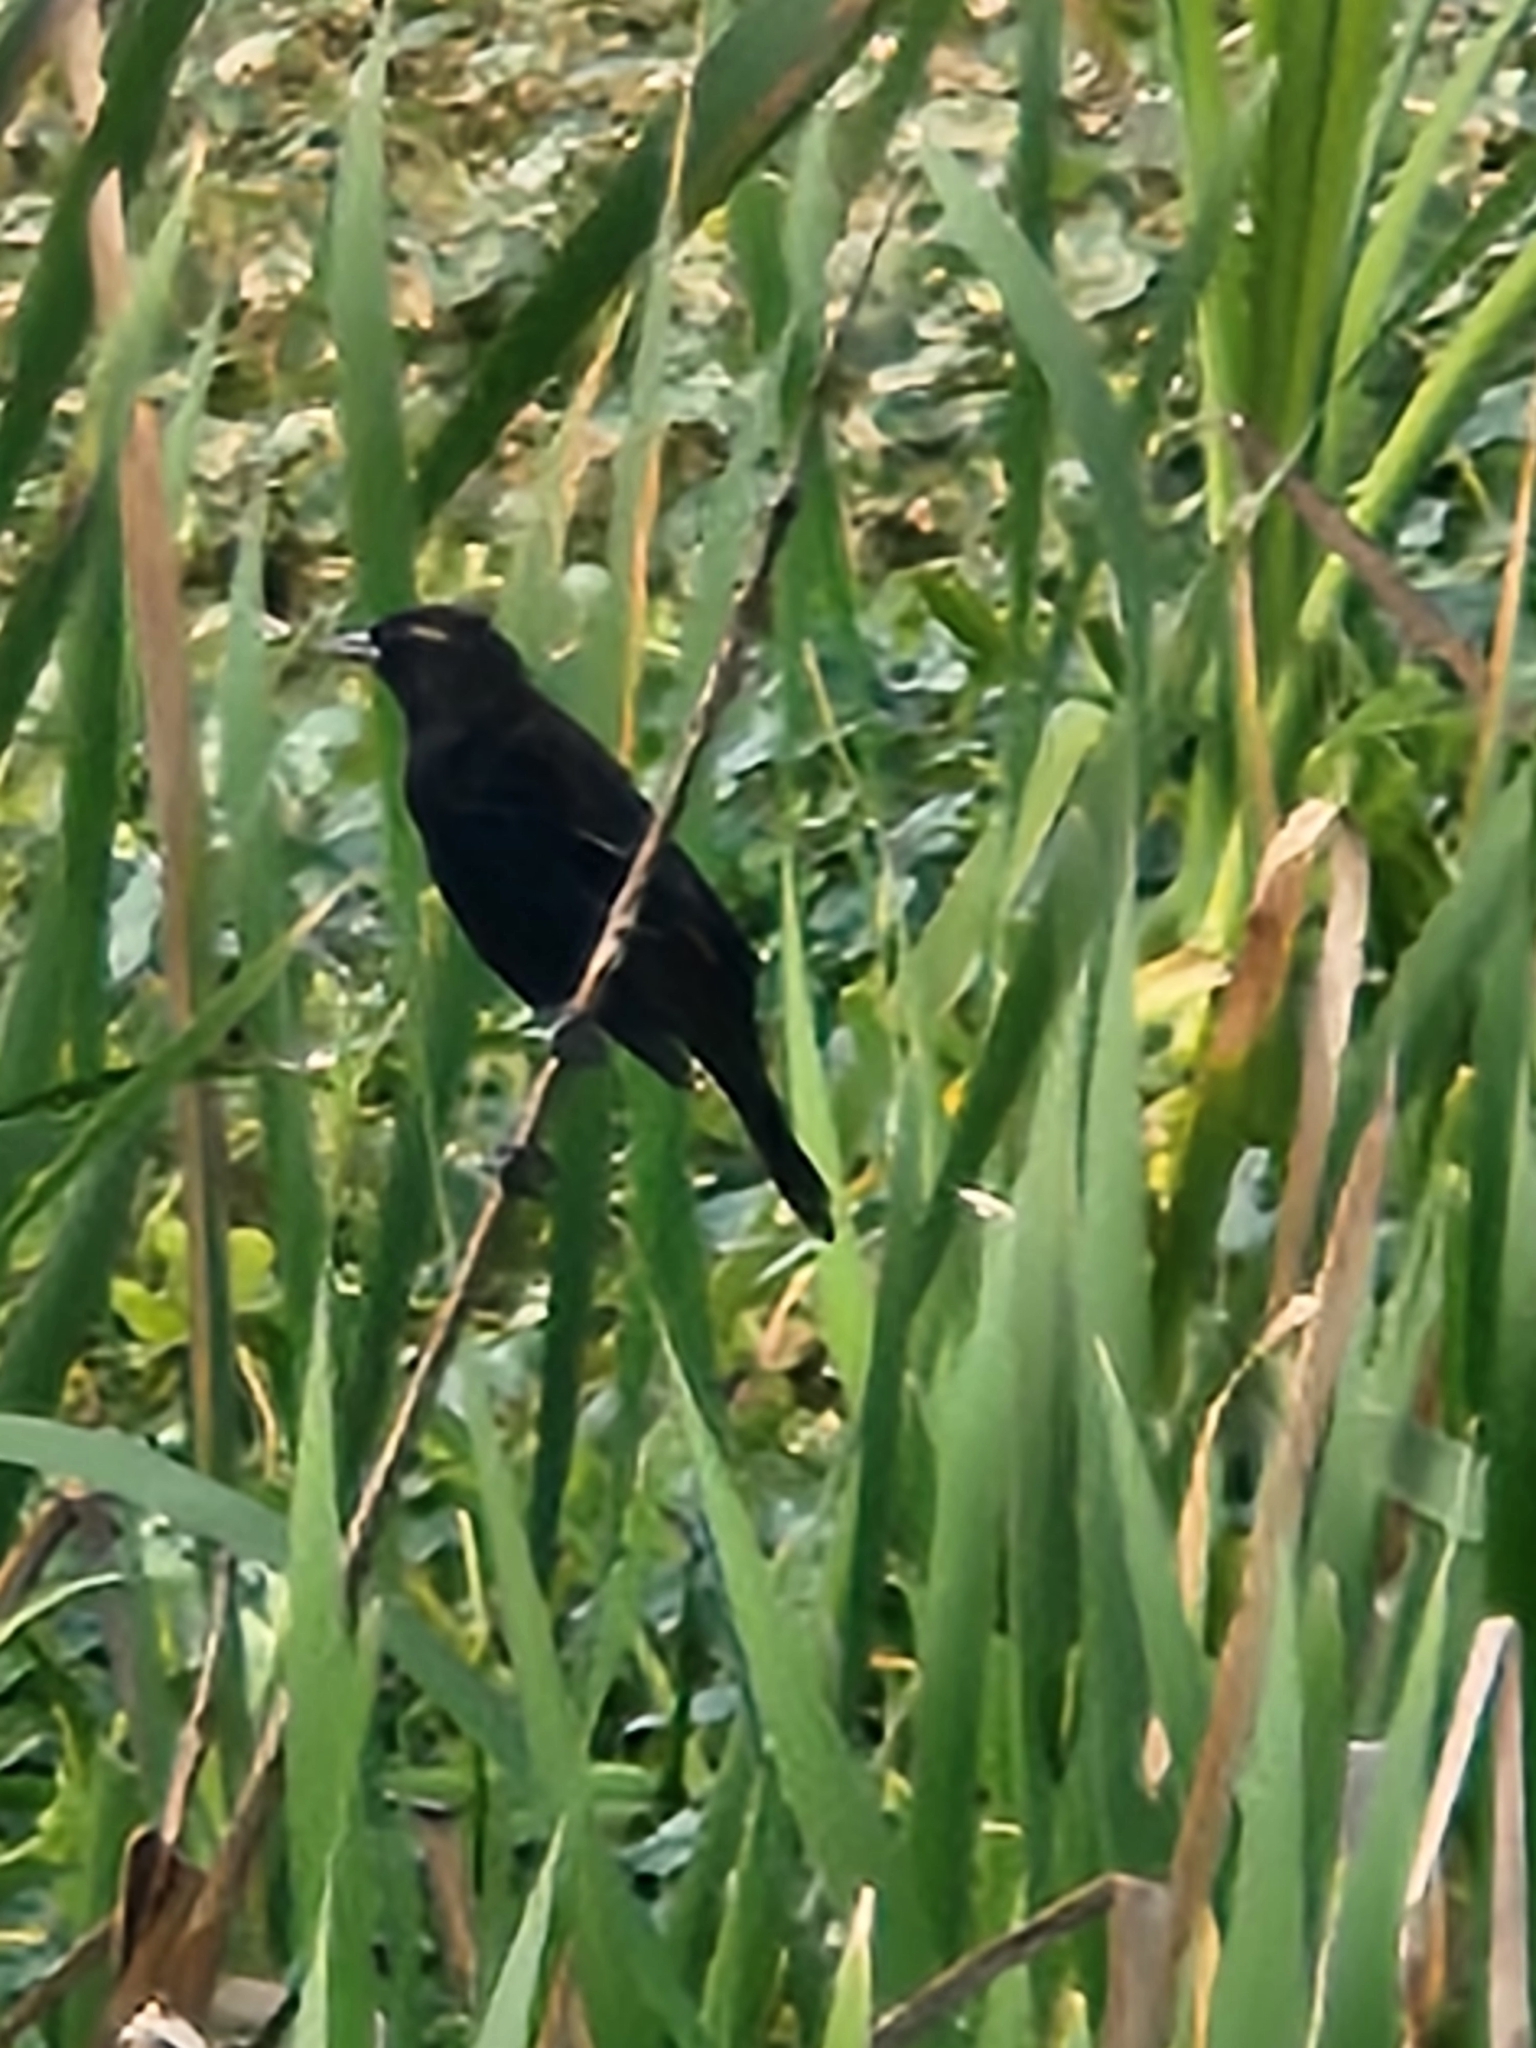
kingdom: Animalia
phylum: Chordata
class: Aves
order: Passeriformes
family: Icteridae
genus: Agelaius
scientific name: Agelaius phoeniceus
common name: Red-winged blackbird
